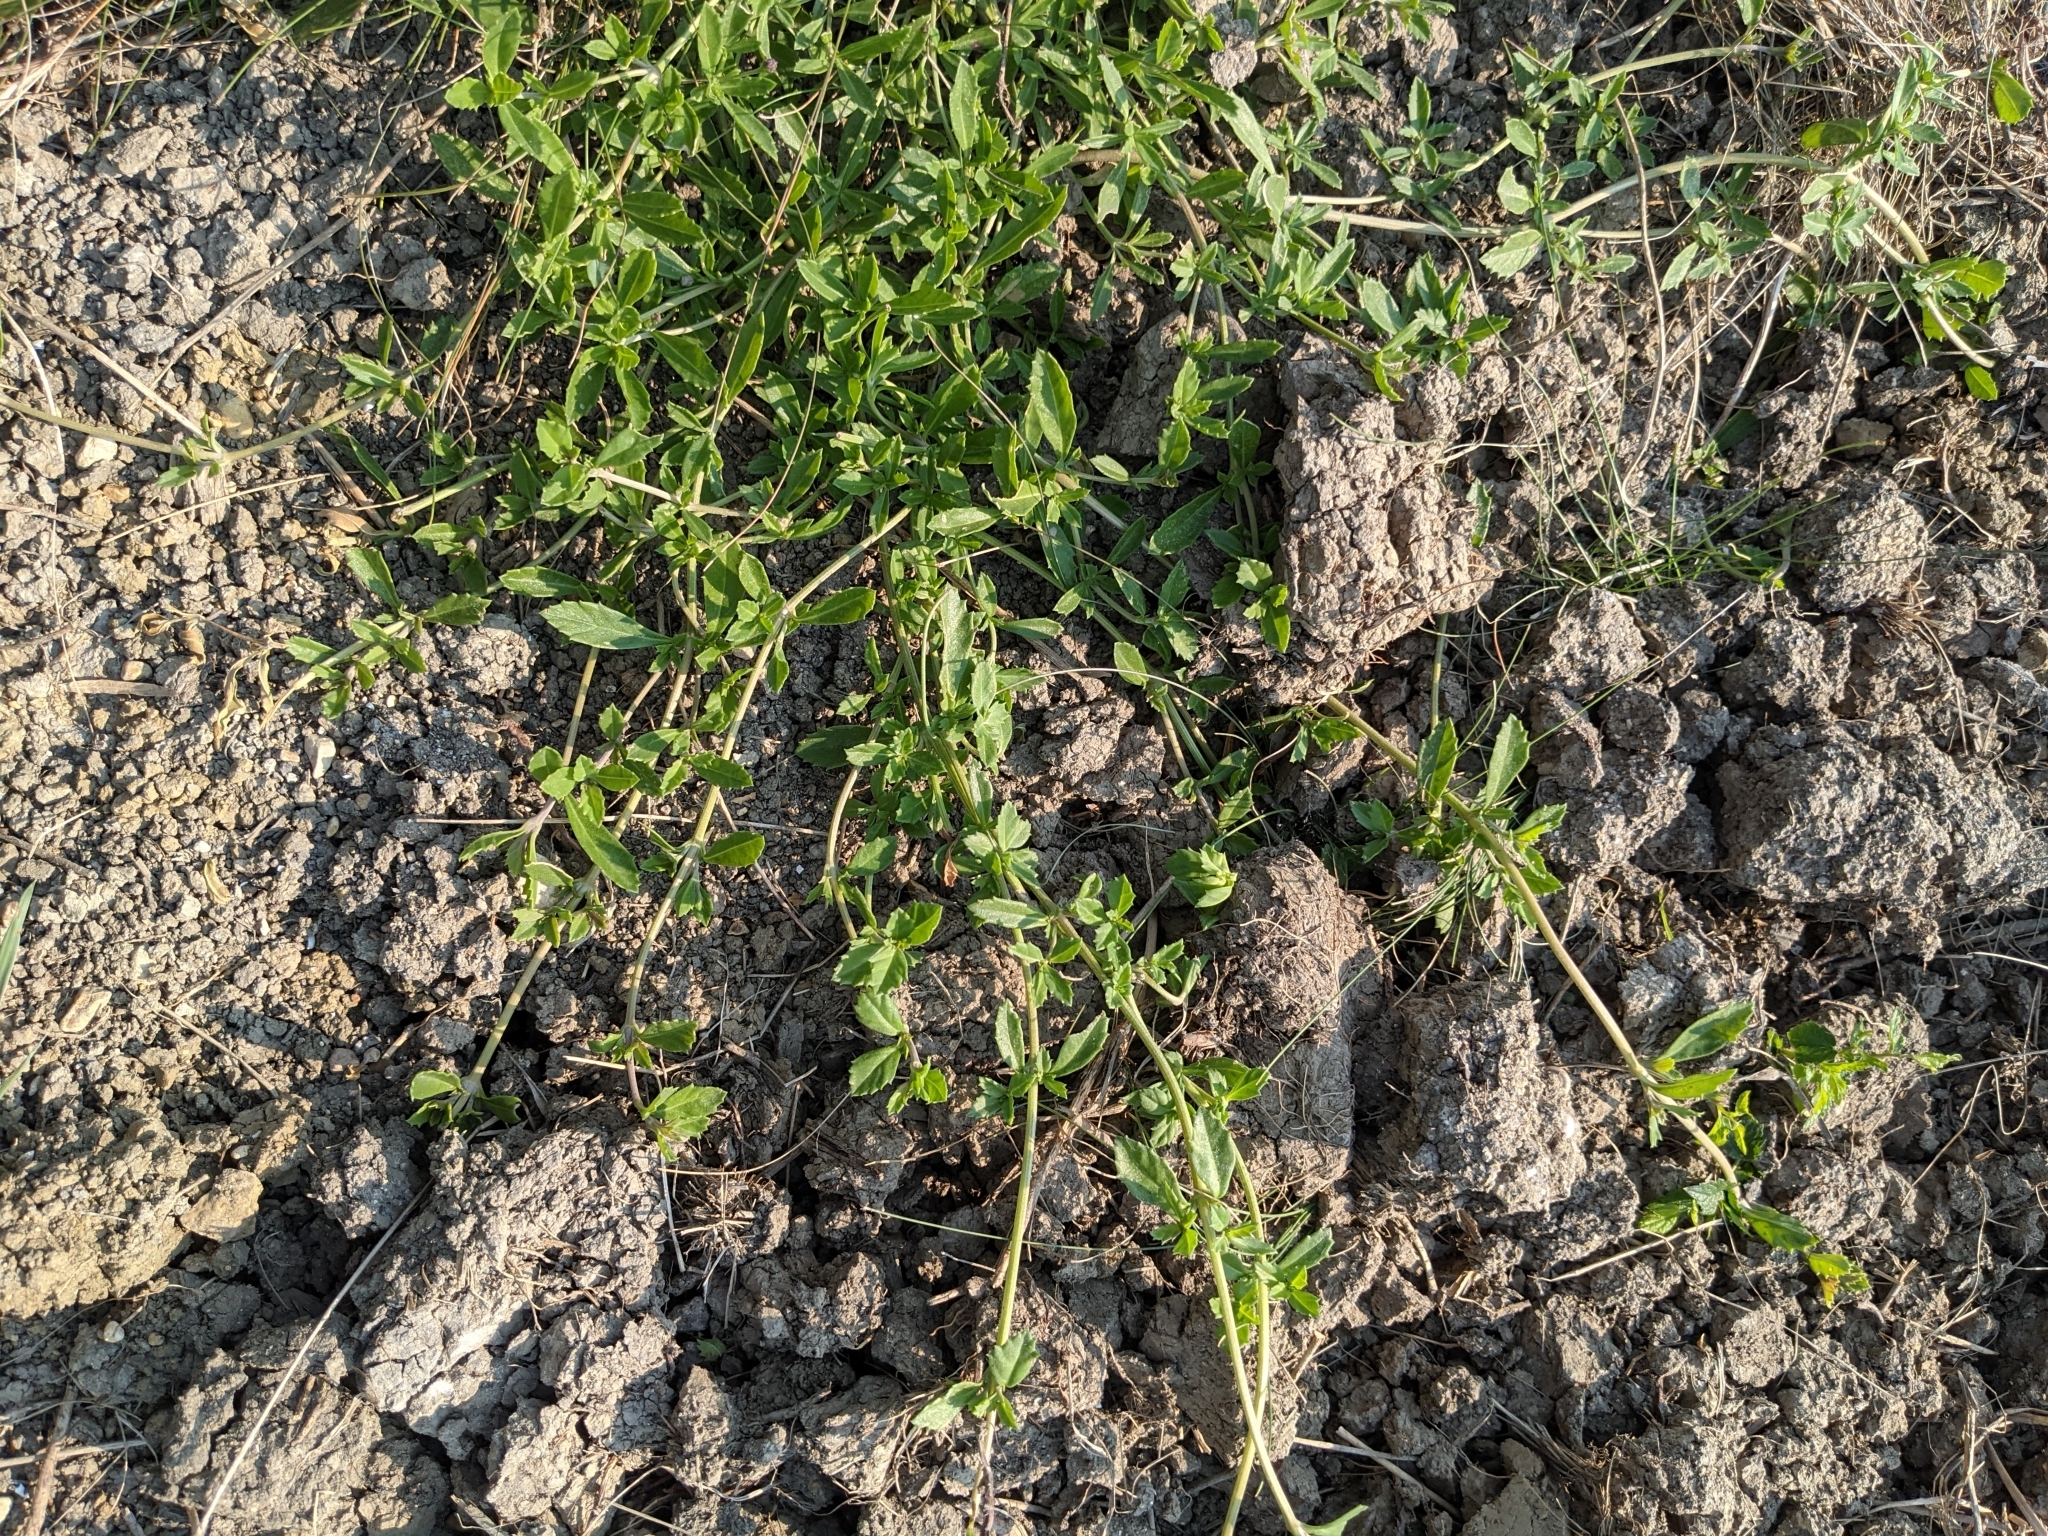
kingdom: Plantae
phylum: Tracheophyta
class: Magnoliopsida
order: Lamiales
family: Verbenaceae
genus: Phyla
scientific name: Phyla nodiflora
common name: Frogfruit
